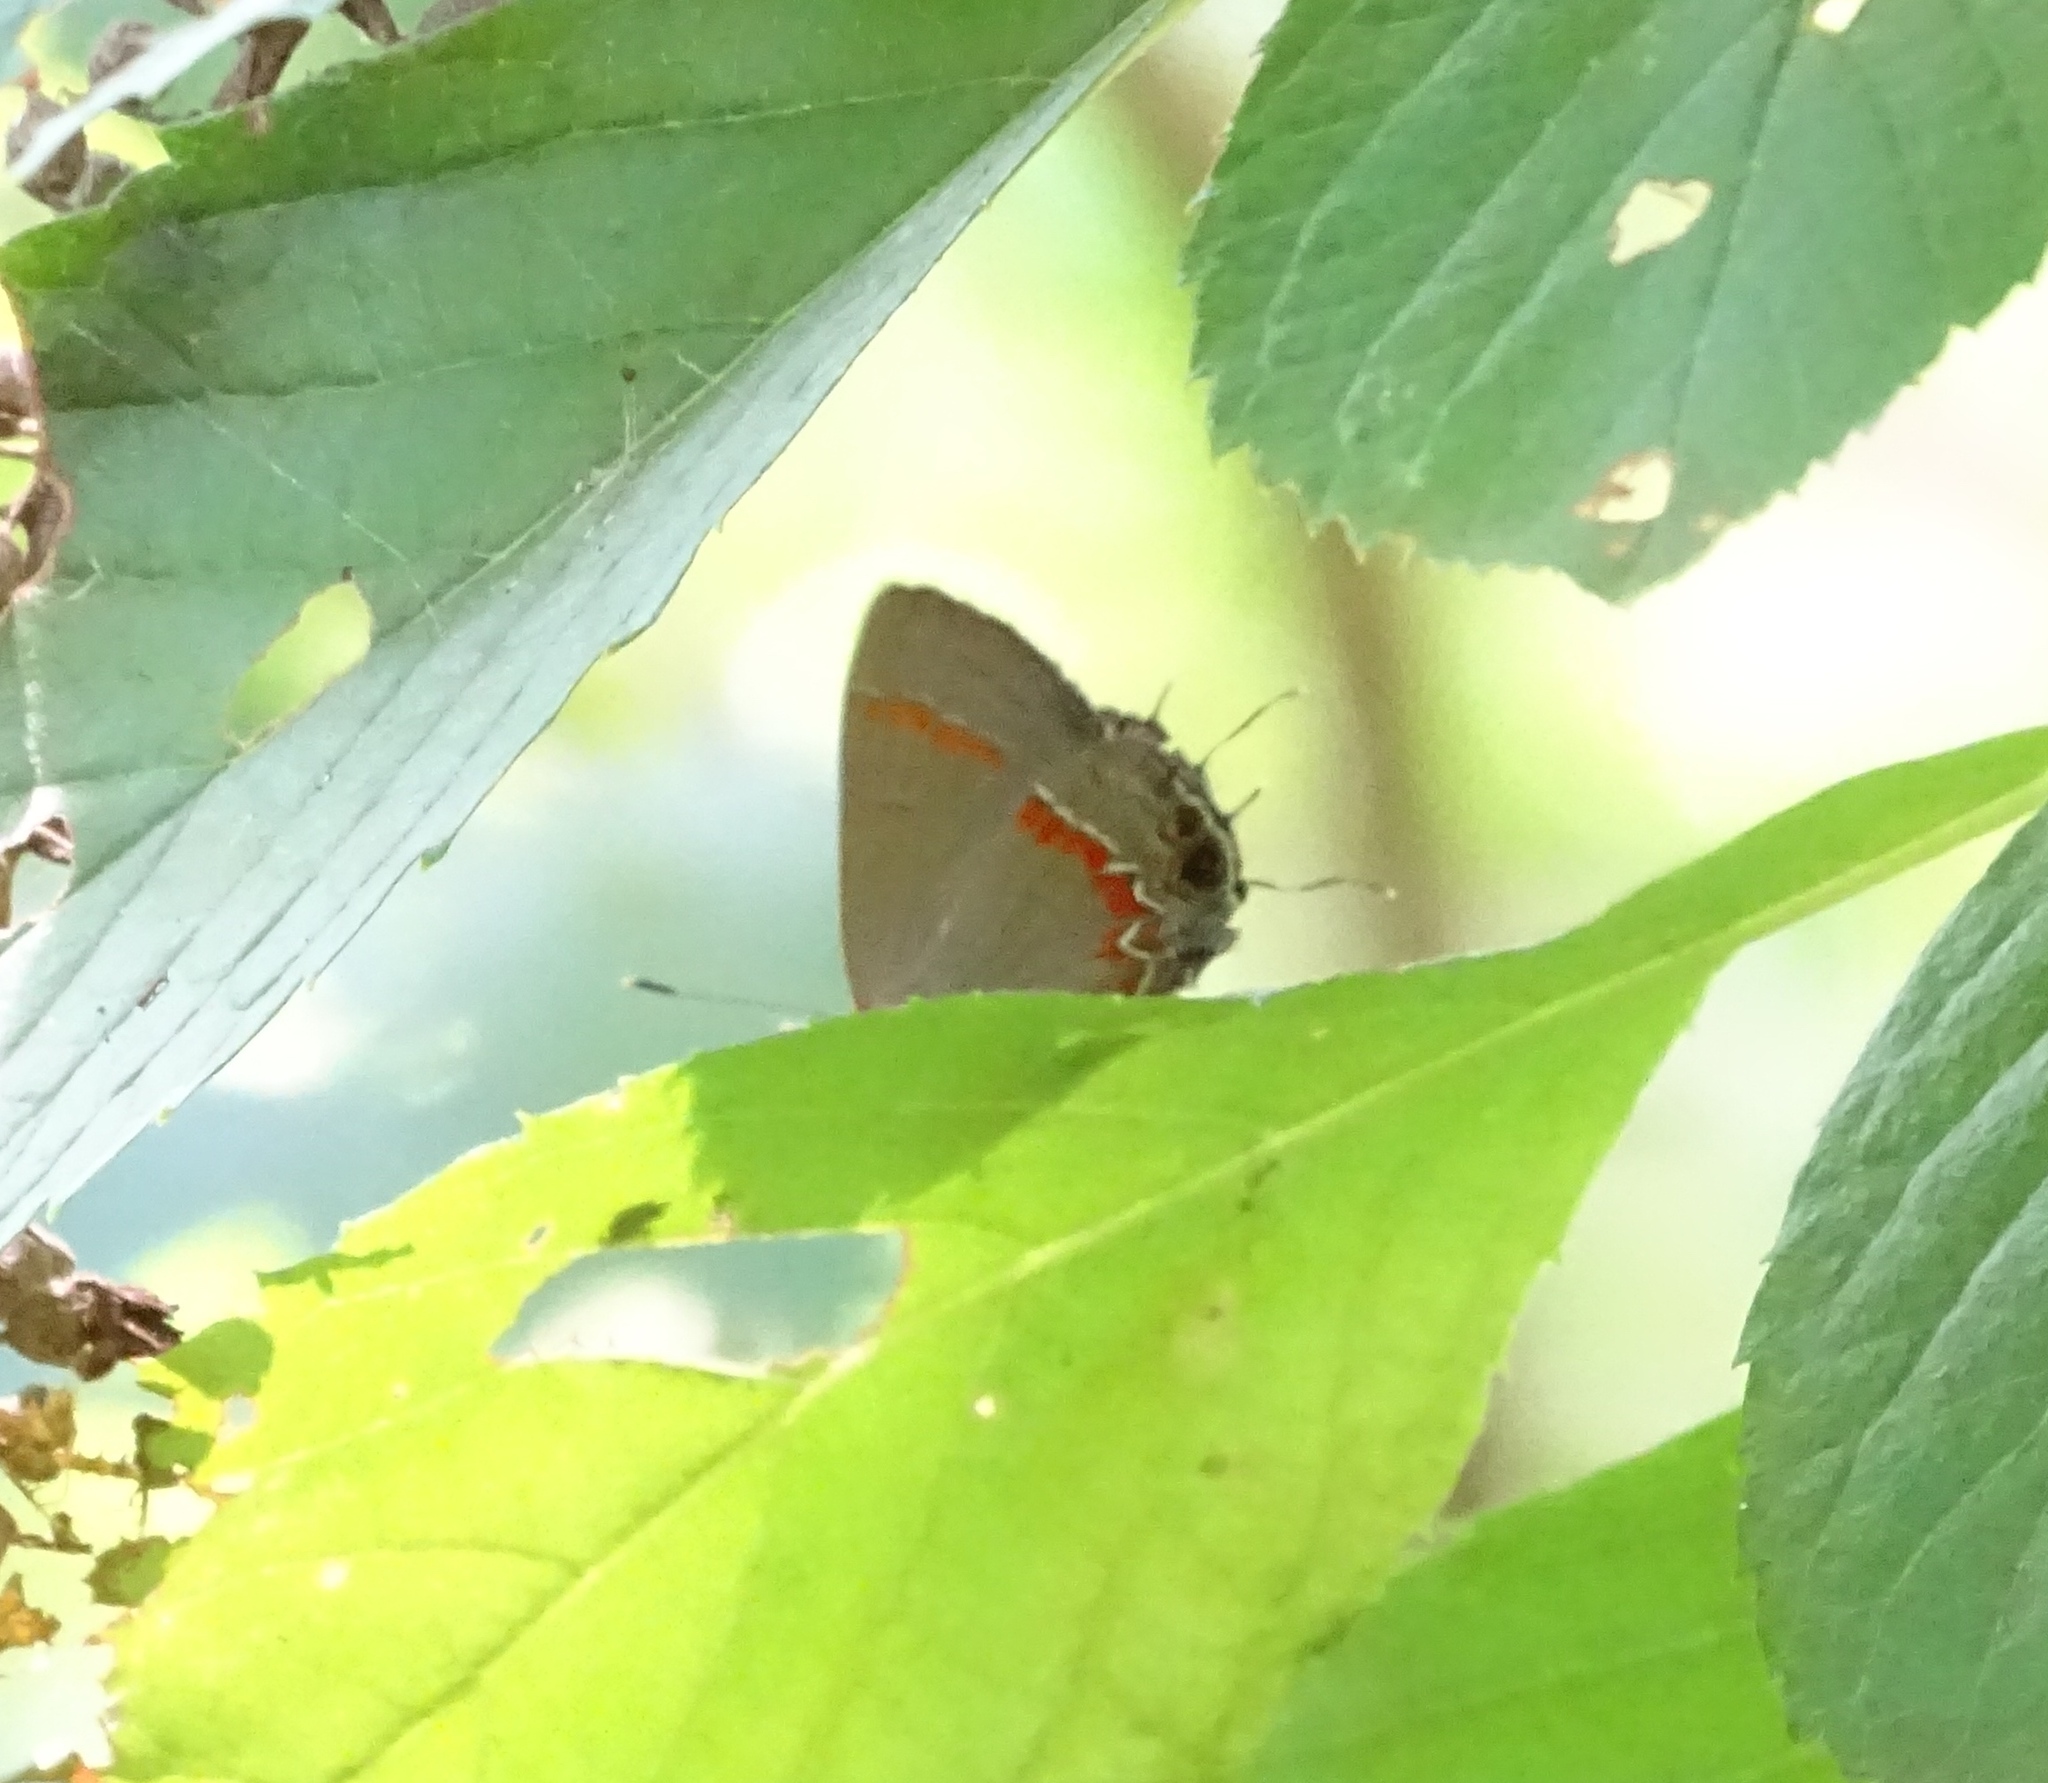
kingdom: Animalia
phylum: Arthropoda
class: Insecta
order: Lepidoptera
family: Lycaenidae
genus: Calycopis
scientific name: Calycopis cecrops
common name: Red-banded hairstreak
